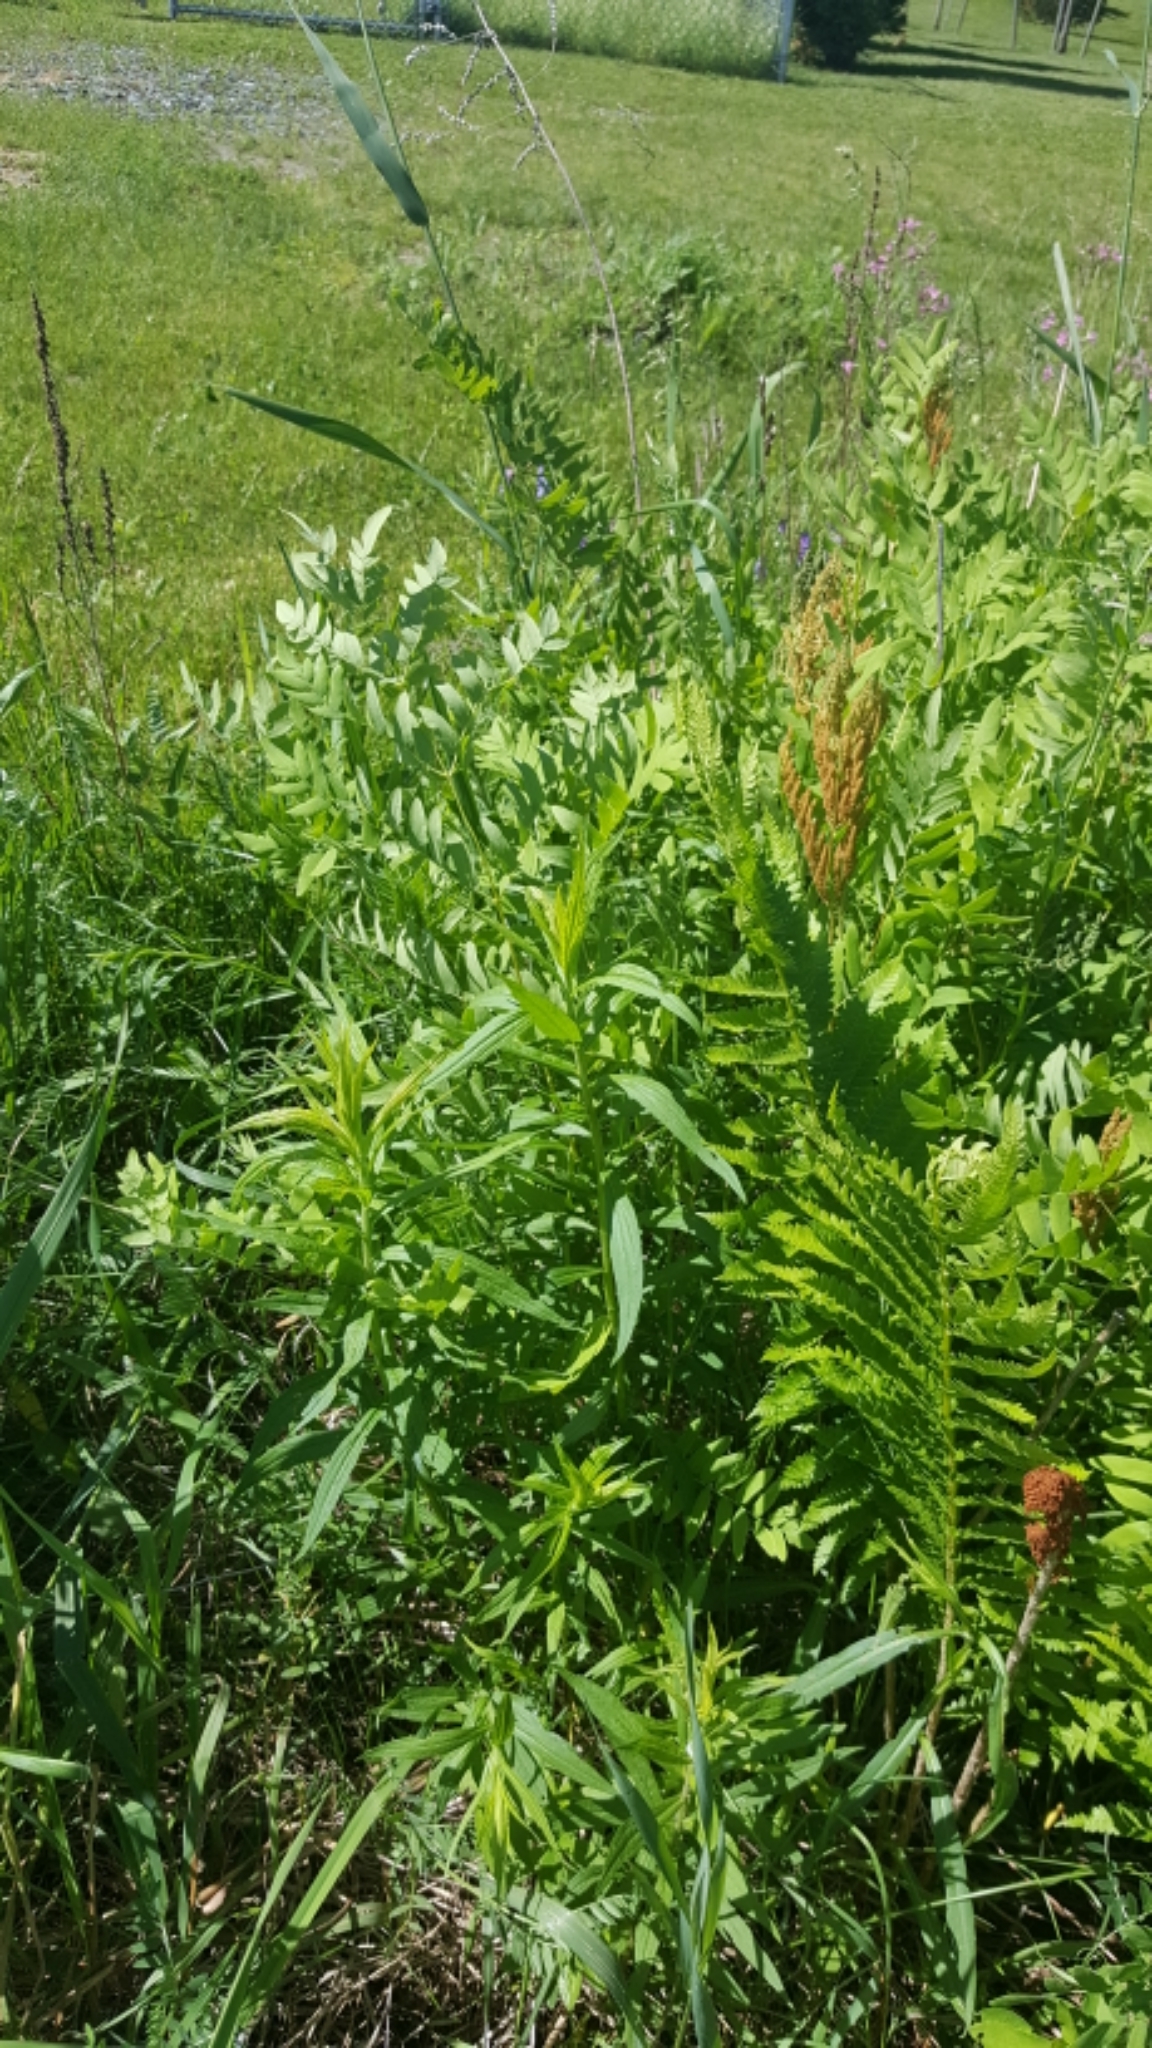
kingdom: Plantae
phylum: Tracheophyta
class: Polypodiopsida
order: Osmundales
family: Osmundaceae
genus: Osmunda
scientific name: Osmunda spectabilis
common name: American royal fern
